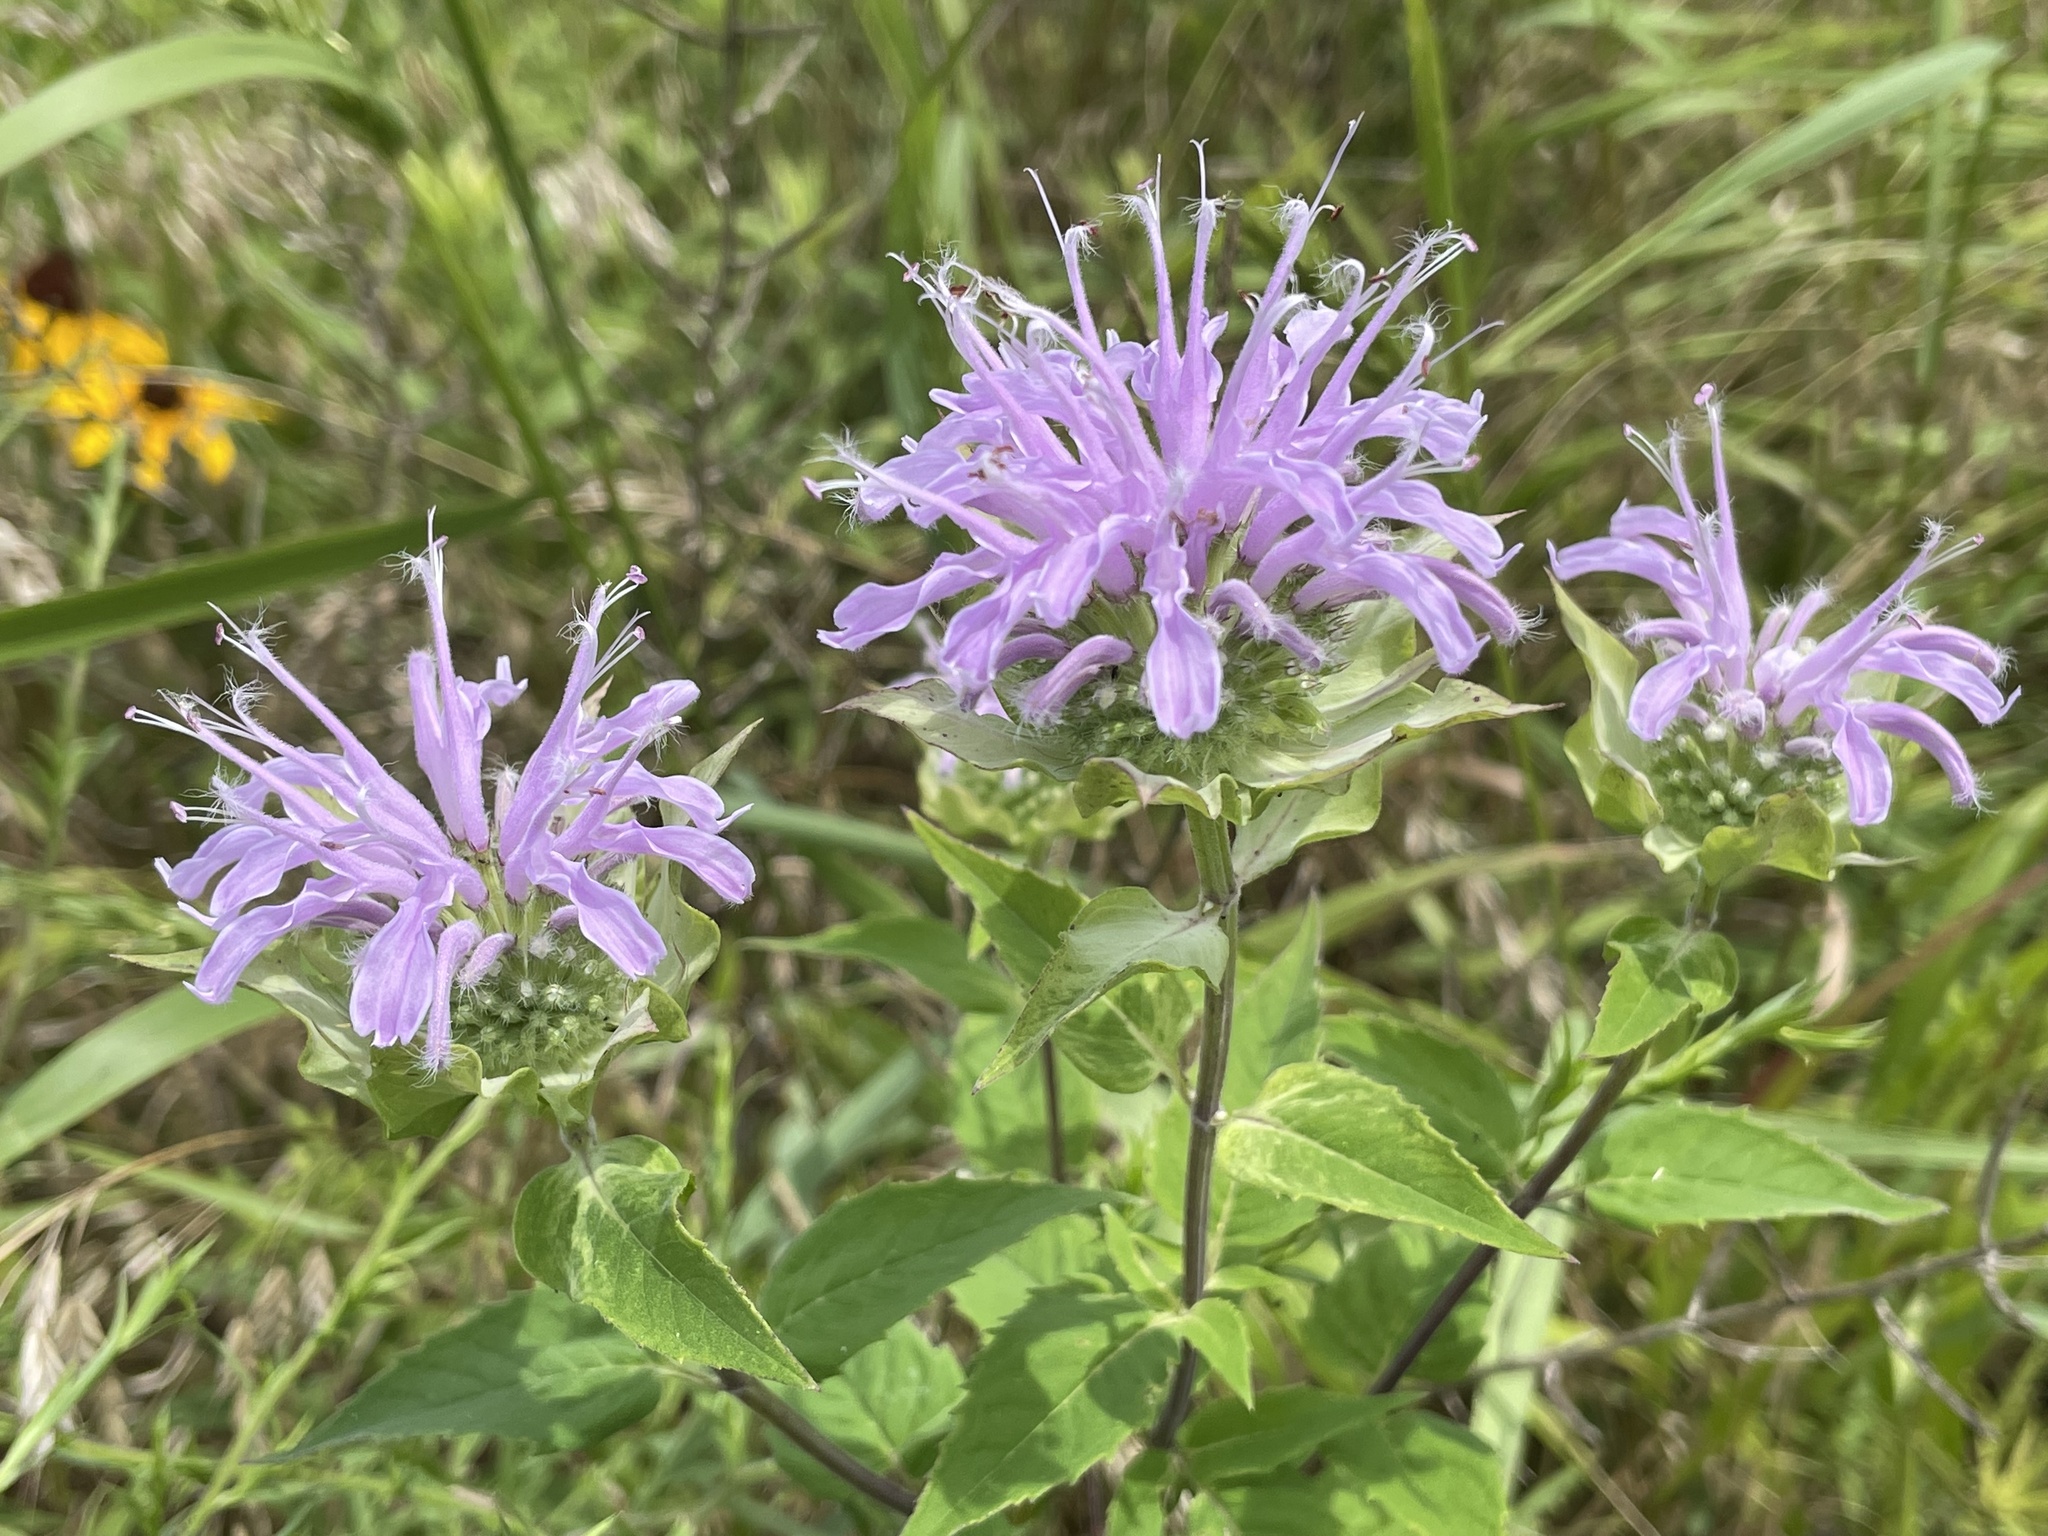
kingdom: Plantae
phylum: Tracheophyta
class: Magnoliopsida
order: Lamiales
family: Lamiaceae
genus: Monarda
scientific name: Monarda fistulosa
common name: Purple beebalm
